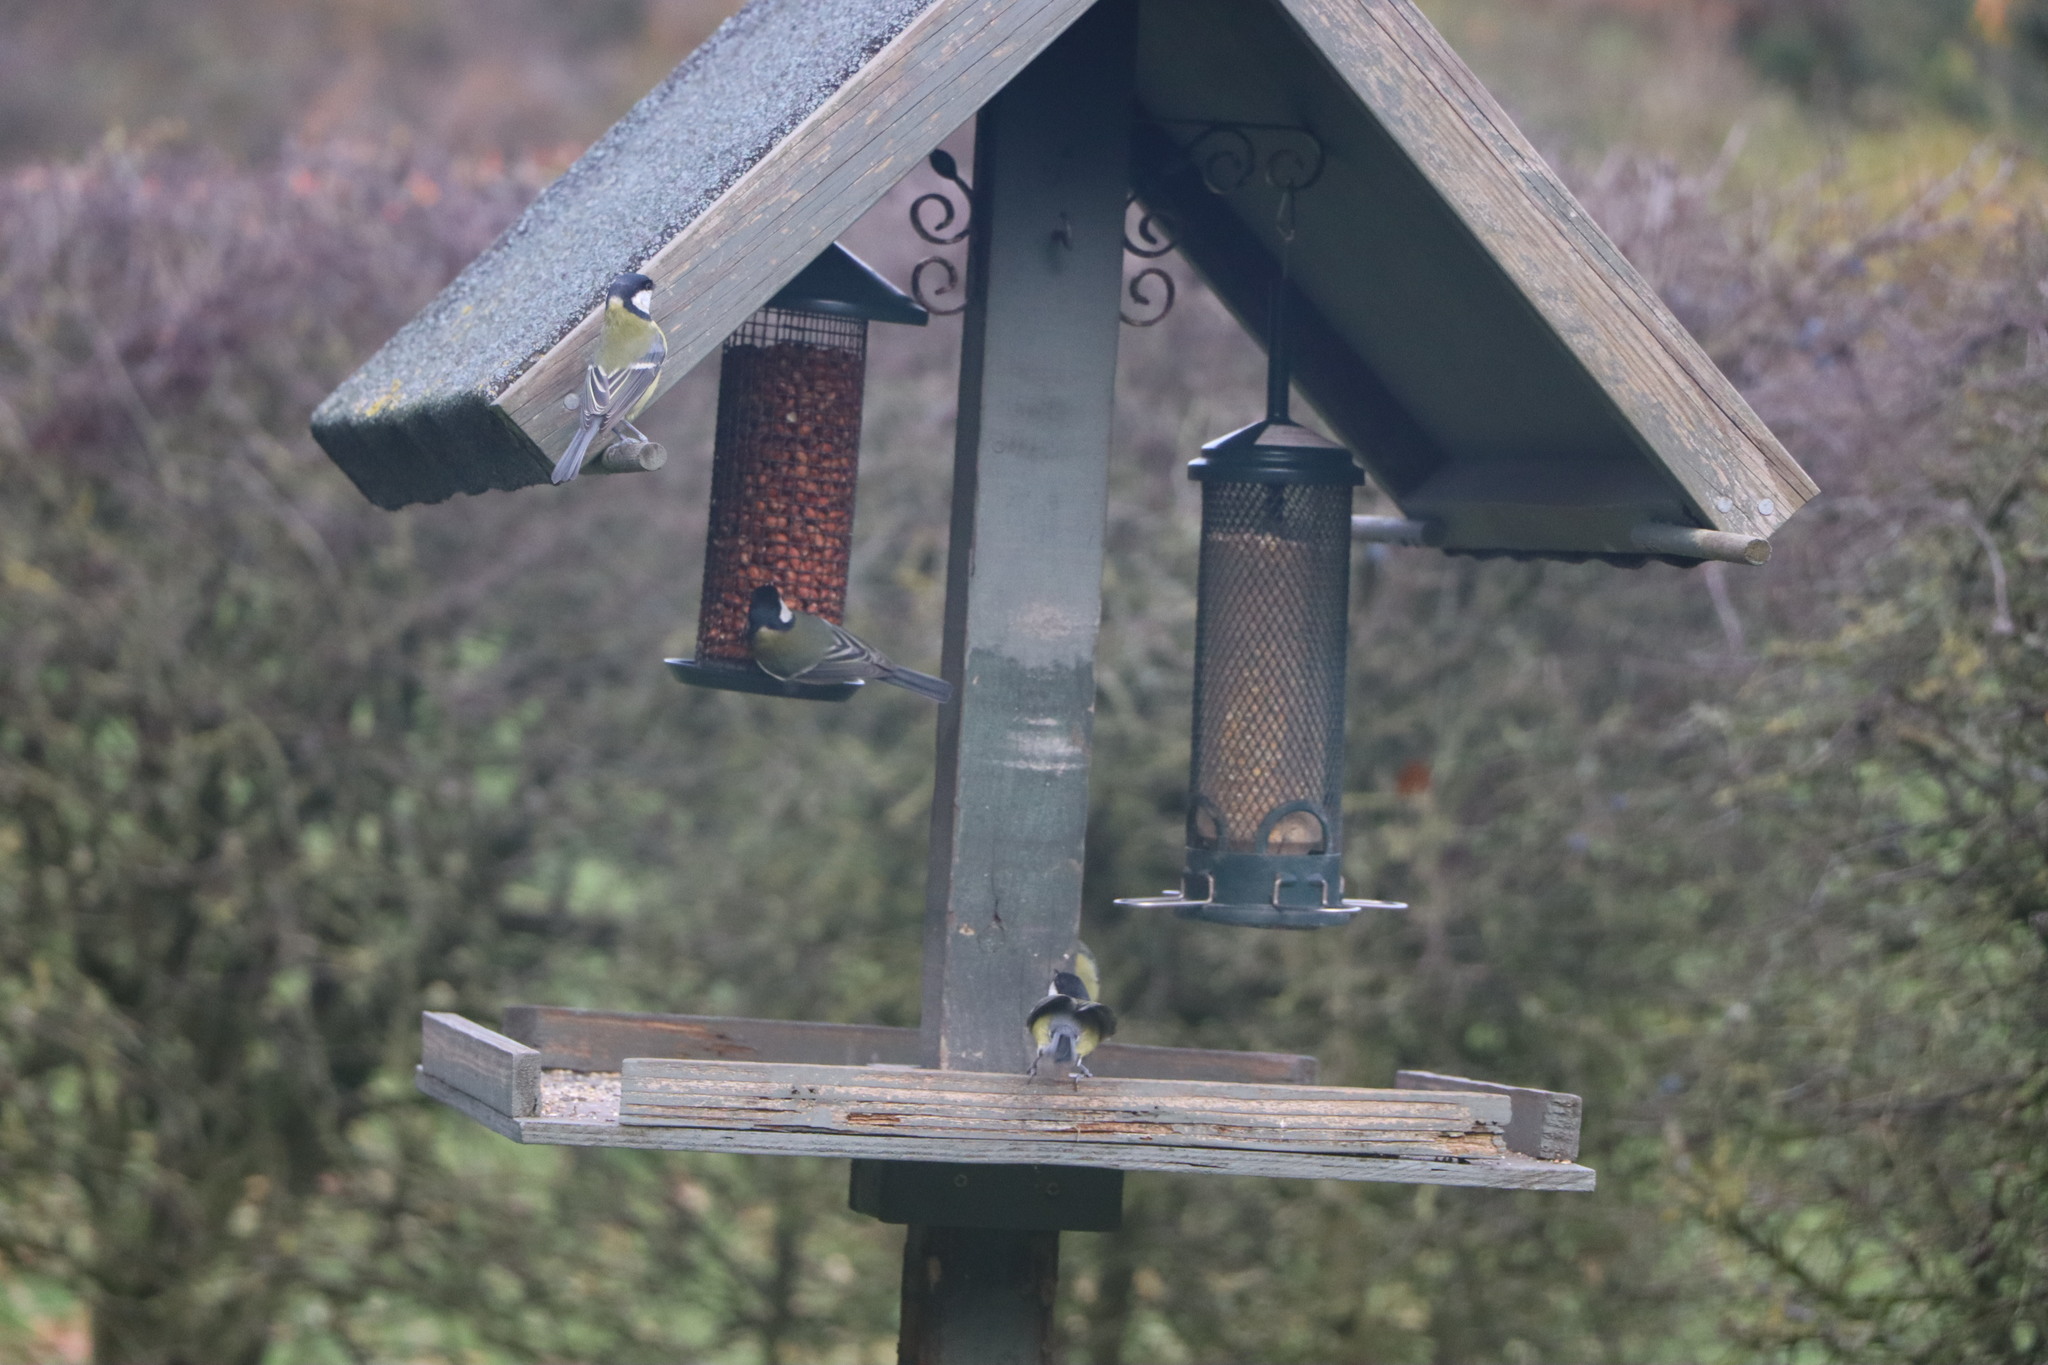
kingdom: Animalia
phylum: Chordata
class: Aves
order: Passeriformes
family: Paridae
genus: Parus
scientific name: Parus major
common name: Great tit
